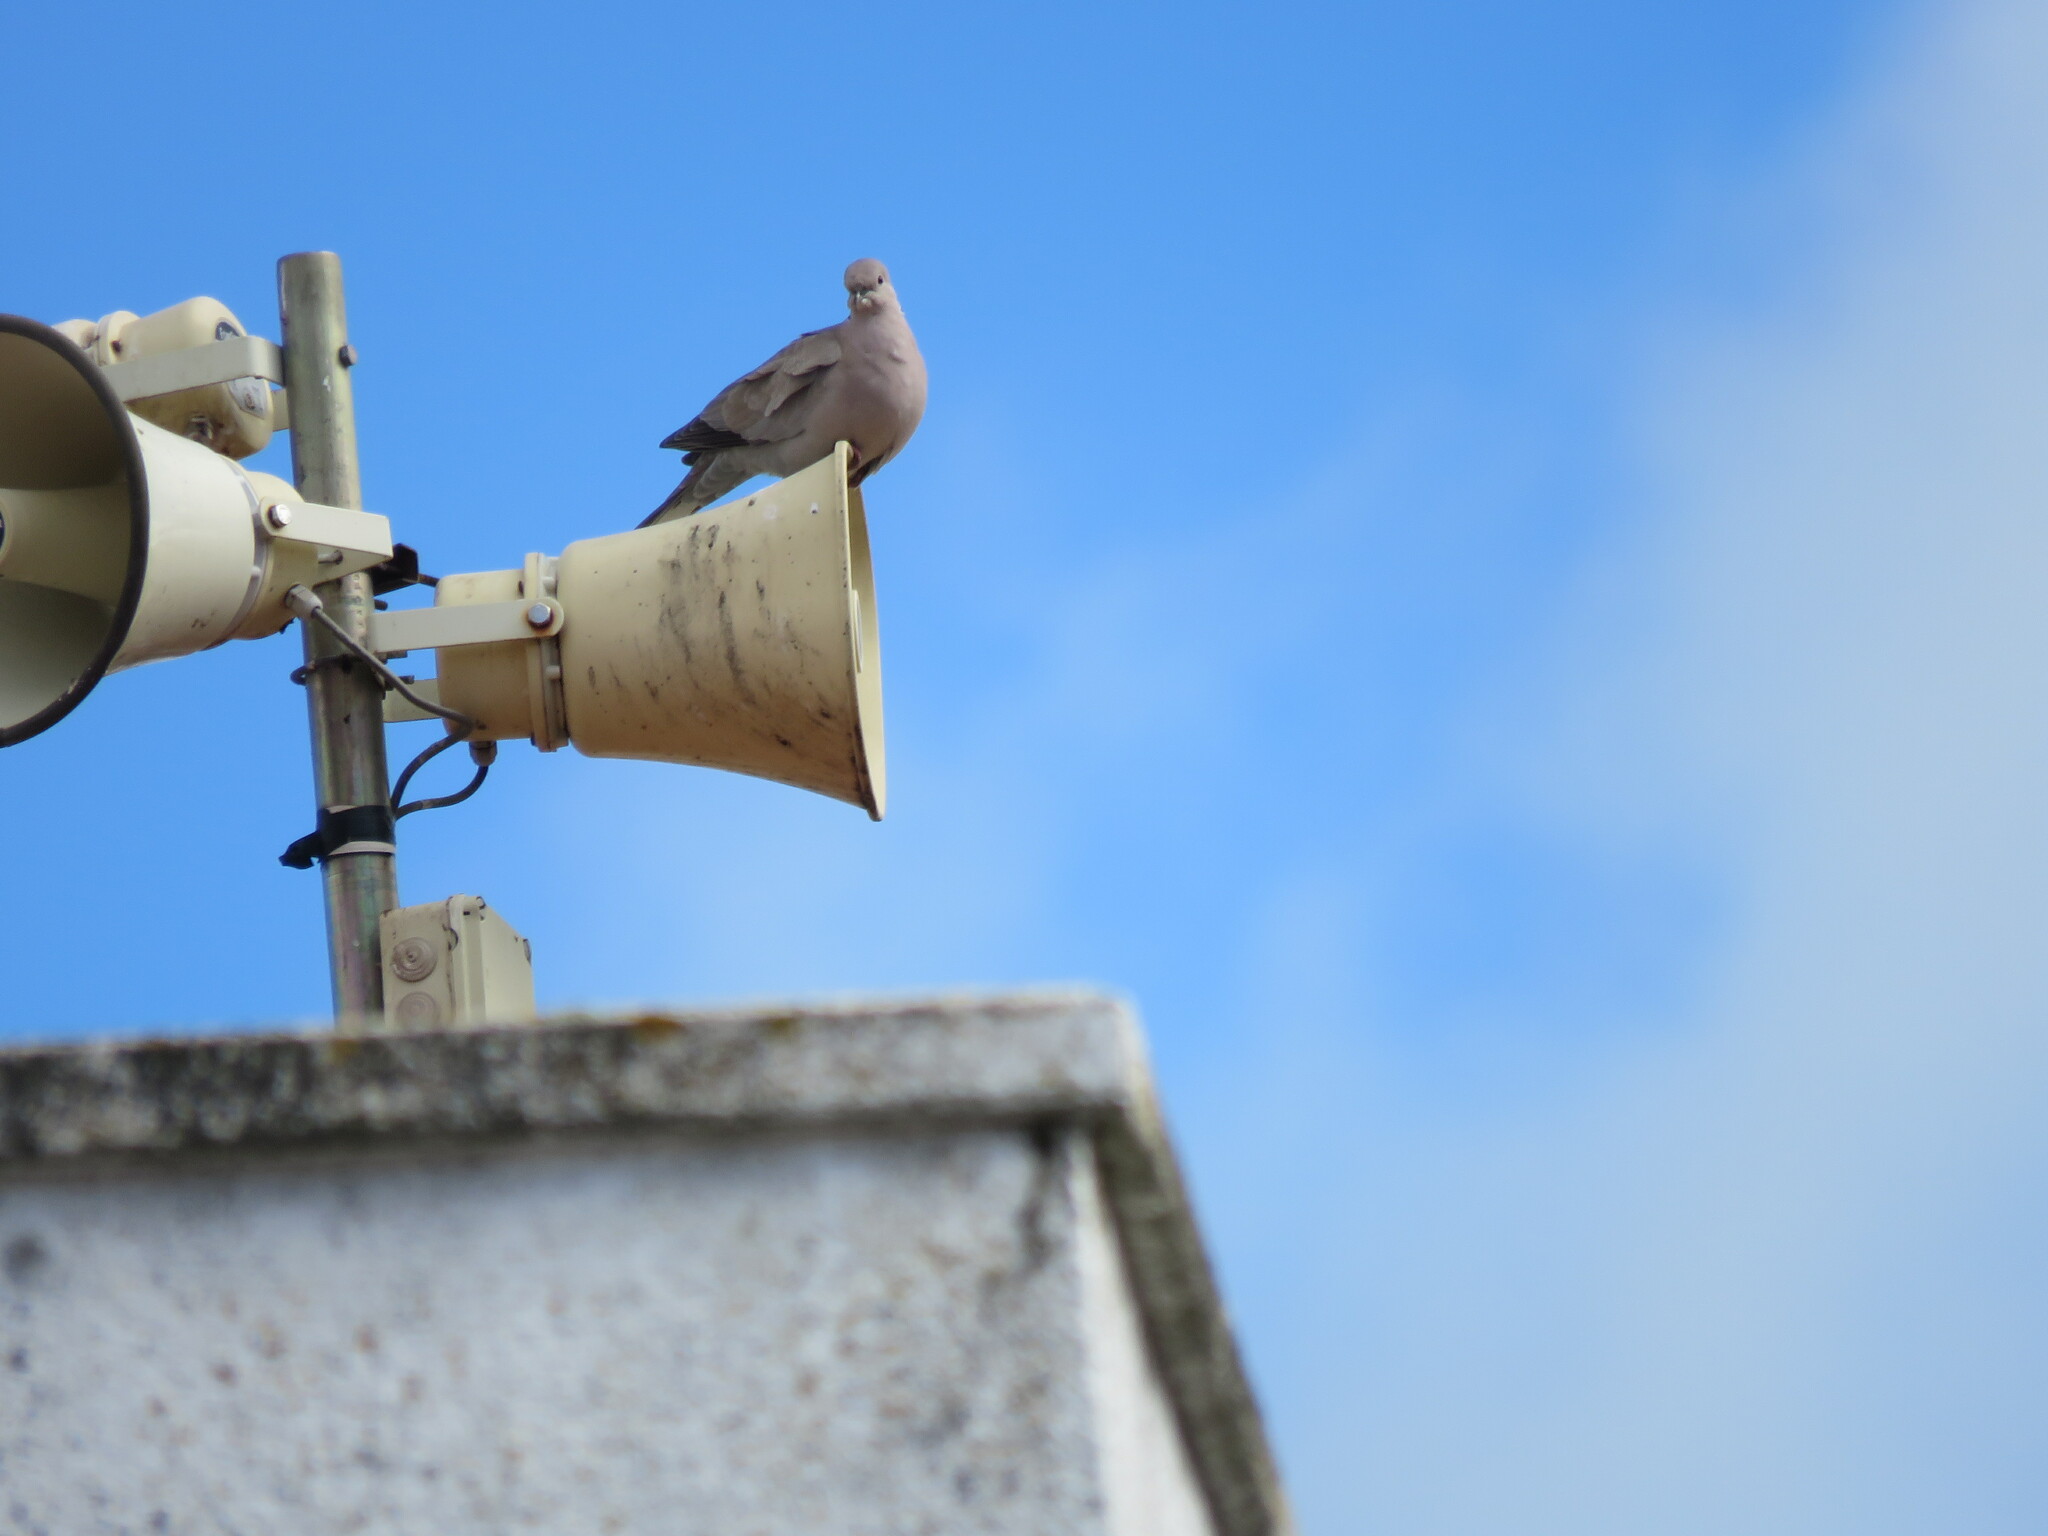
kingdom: Animalia
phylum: Chordata
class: Aves
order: Columbiformes
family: Columbidae
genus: Streptopelia
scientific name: Streptopelia decaocto
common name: Eurasian collared dove
